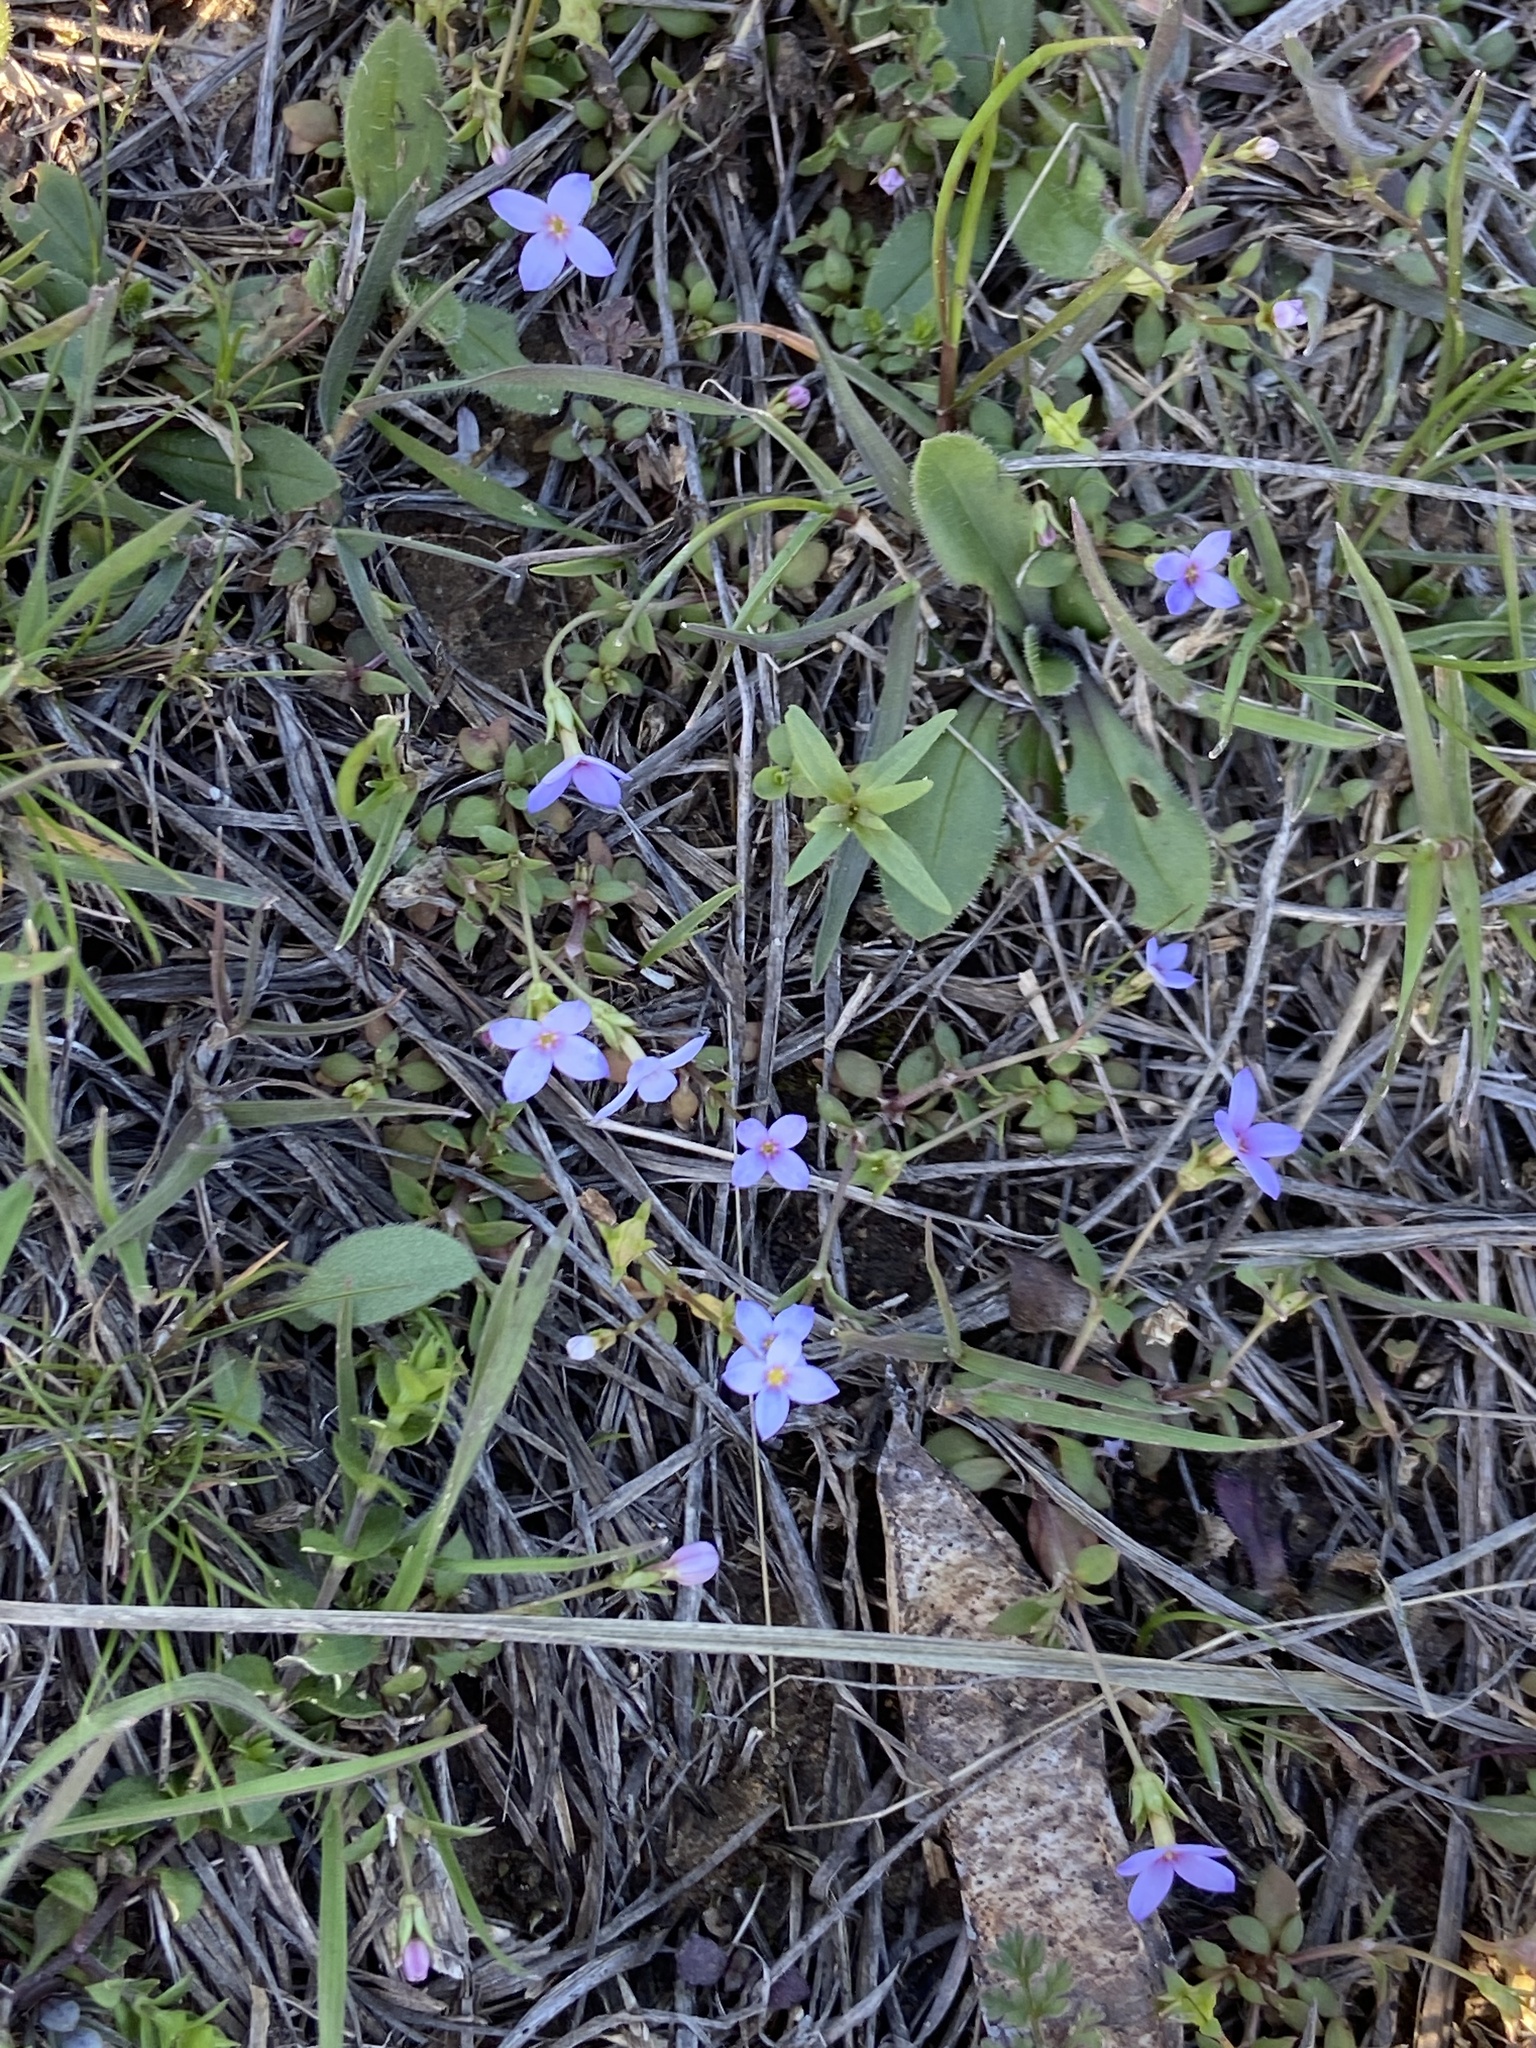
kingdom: Plantae
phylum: Tracheophyta
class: Magnoliopsida
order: Gentianales
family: Rubiaceae
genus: Houstonia
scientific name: Houstonia pusilla
